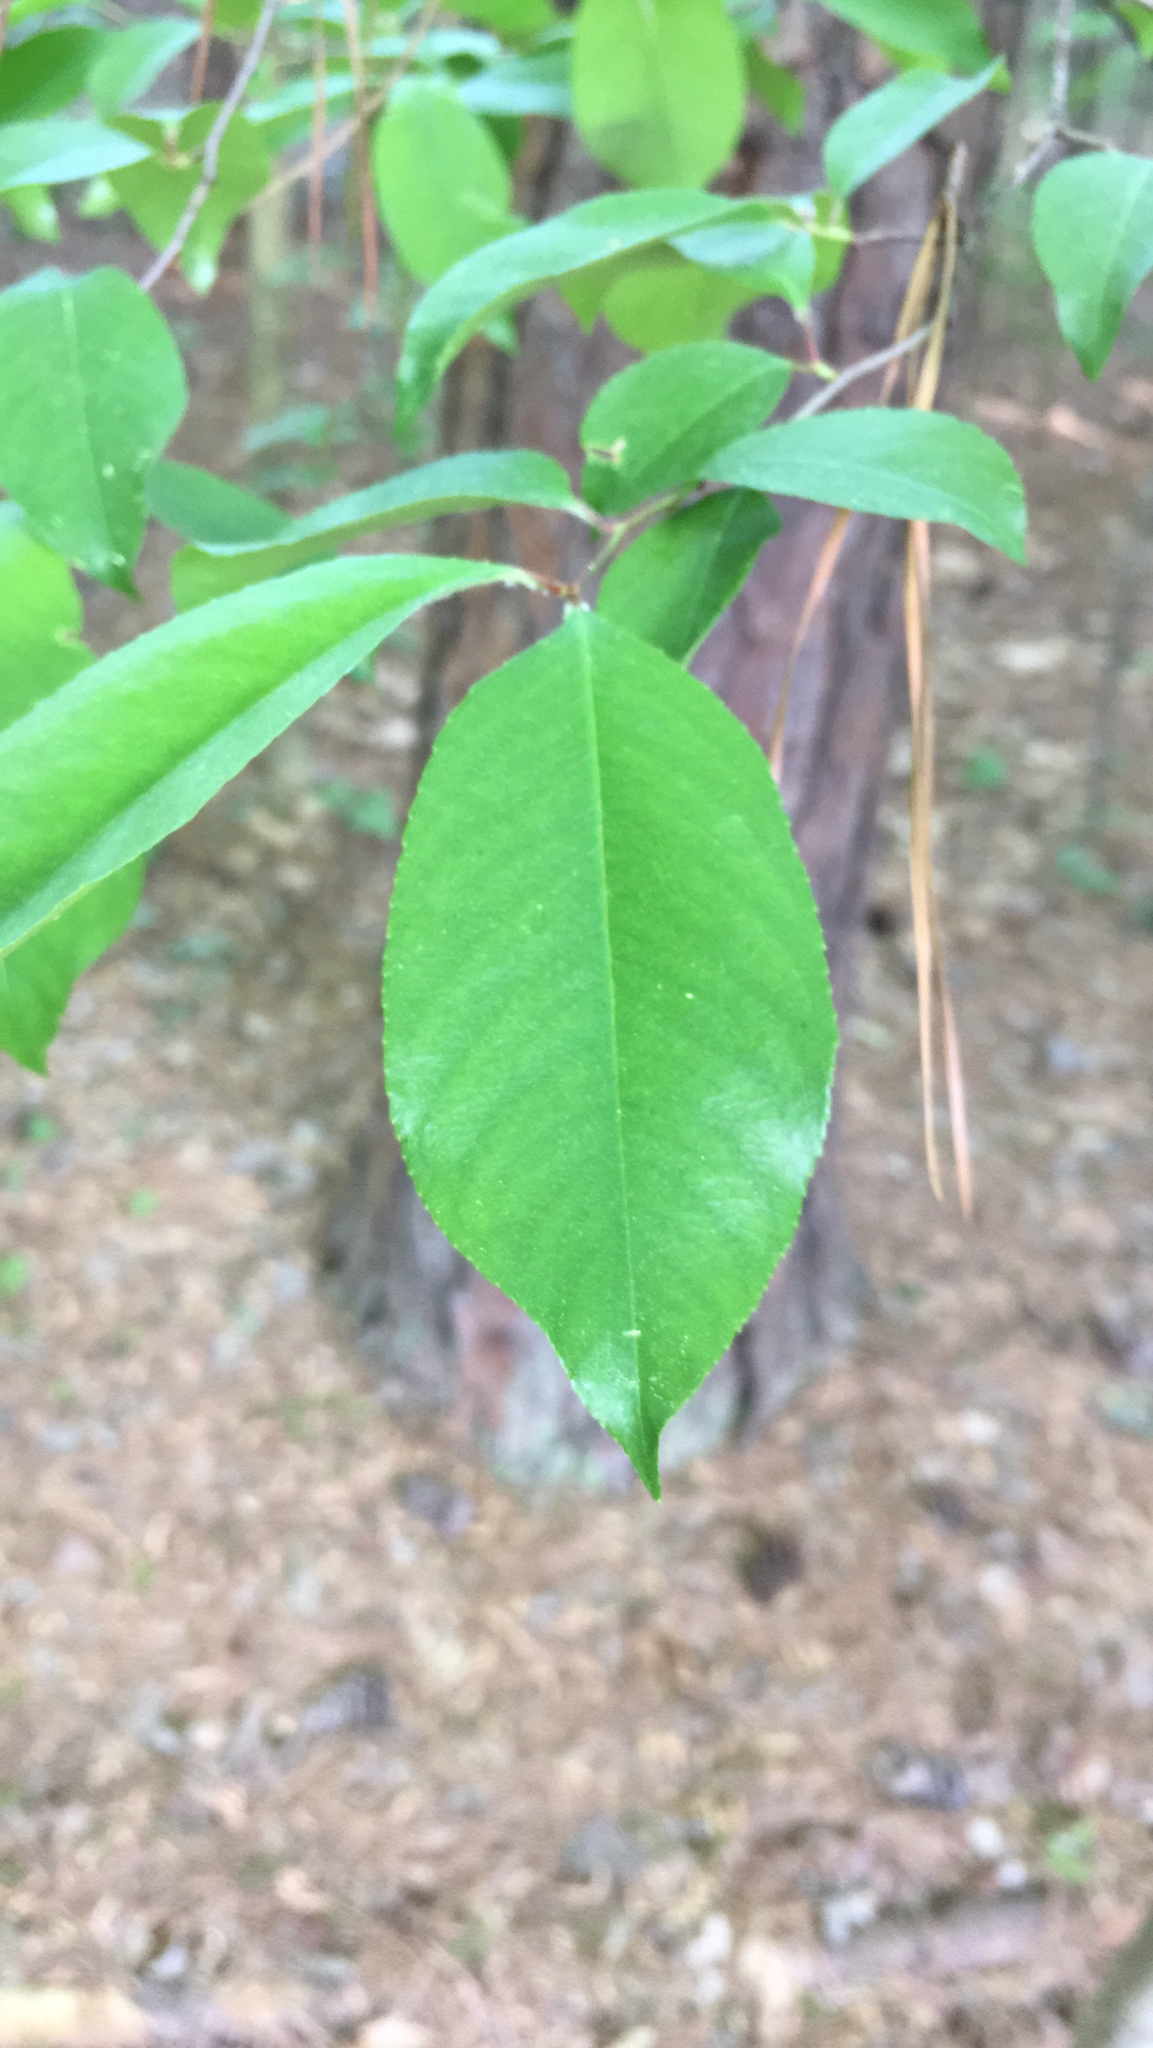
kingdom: Plantae
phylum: Tracheophyta
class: Magnoliopsida
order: Rosales
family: Rosaceae
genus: Prunus
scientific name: Prunus serotina
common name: Black cherry
